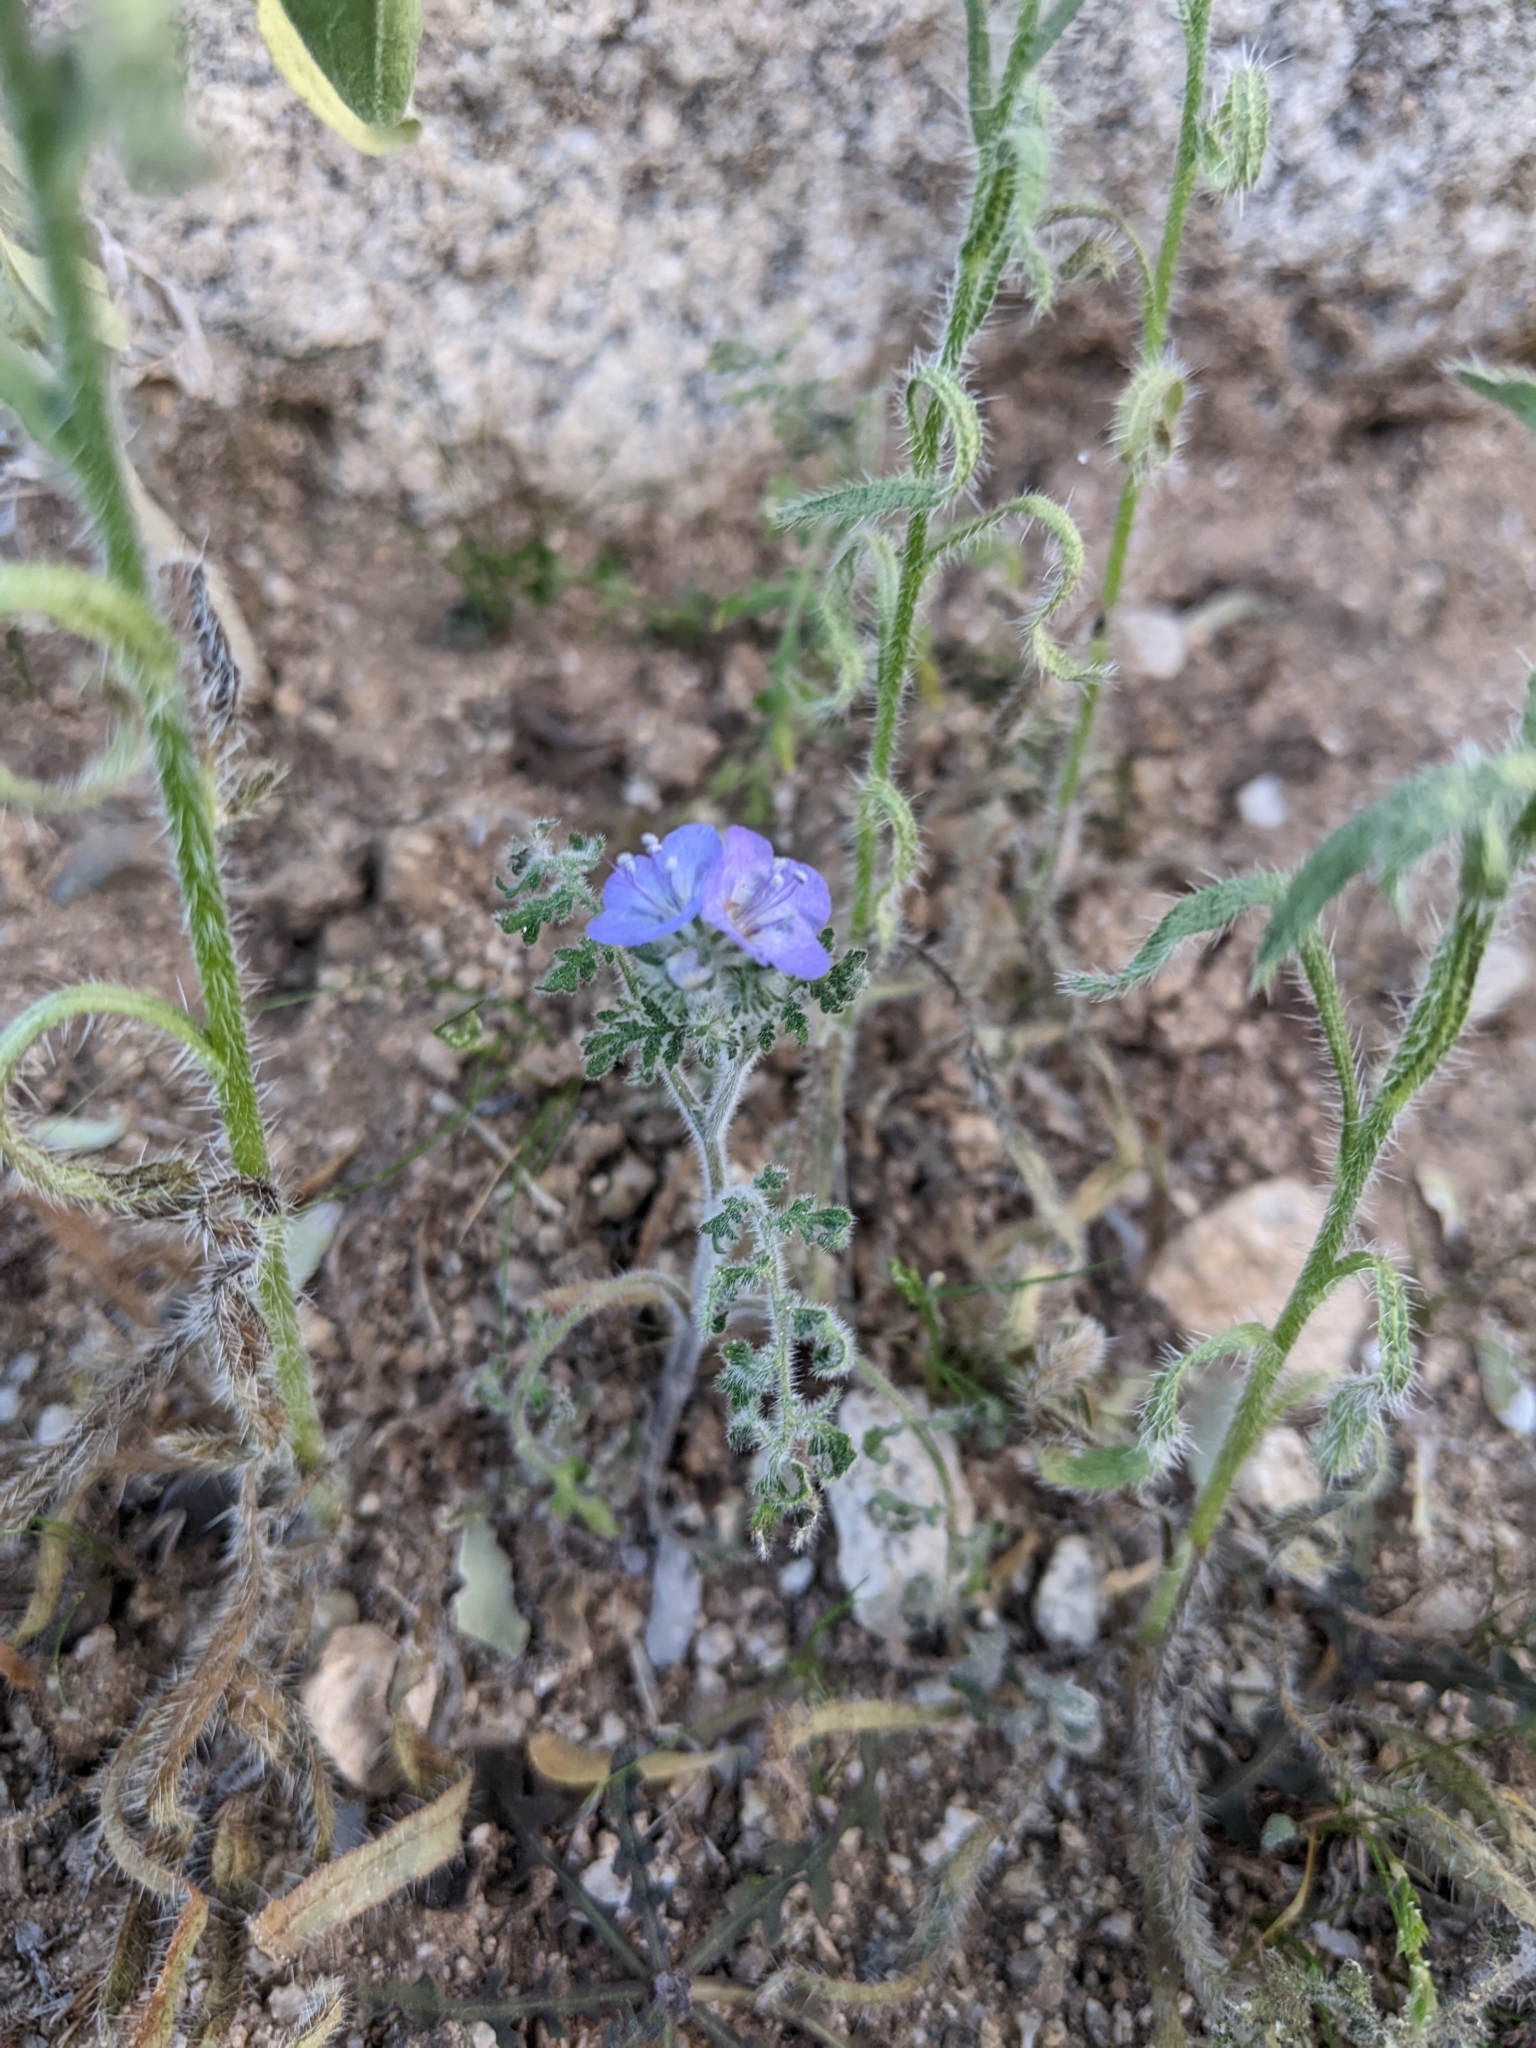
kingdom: Plantae
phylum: Tracheophyta
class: Magnoliopsida
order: Boraginales
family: Hydrophyllaceae
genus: Phacelia
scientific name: Phacelia distans
